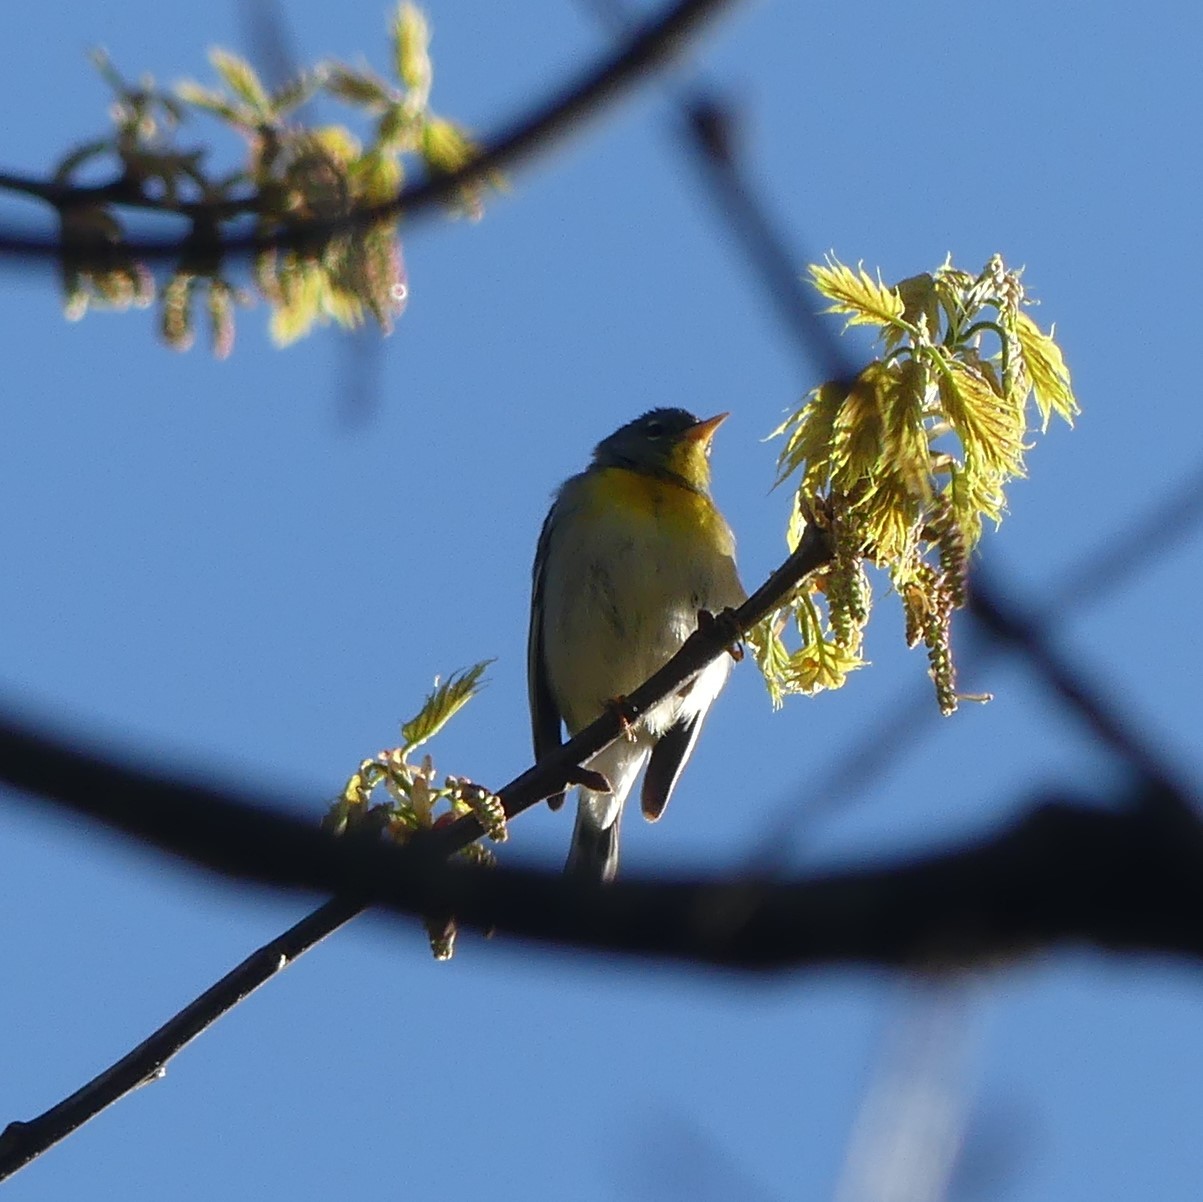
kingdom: Animalia
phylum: Chordata
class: Aves
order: Passeriformes
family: Parulidae
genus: Setophaga
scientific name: Setophaga americana
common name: Northern parula
